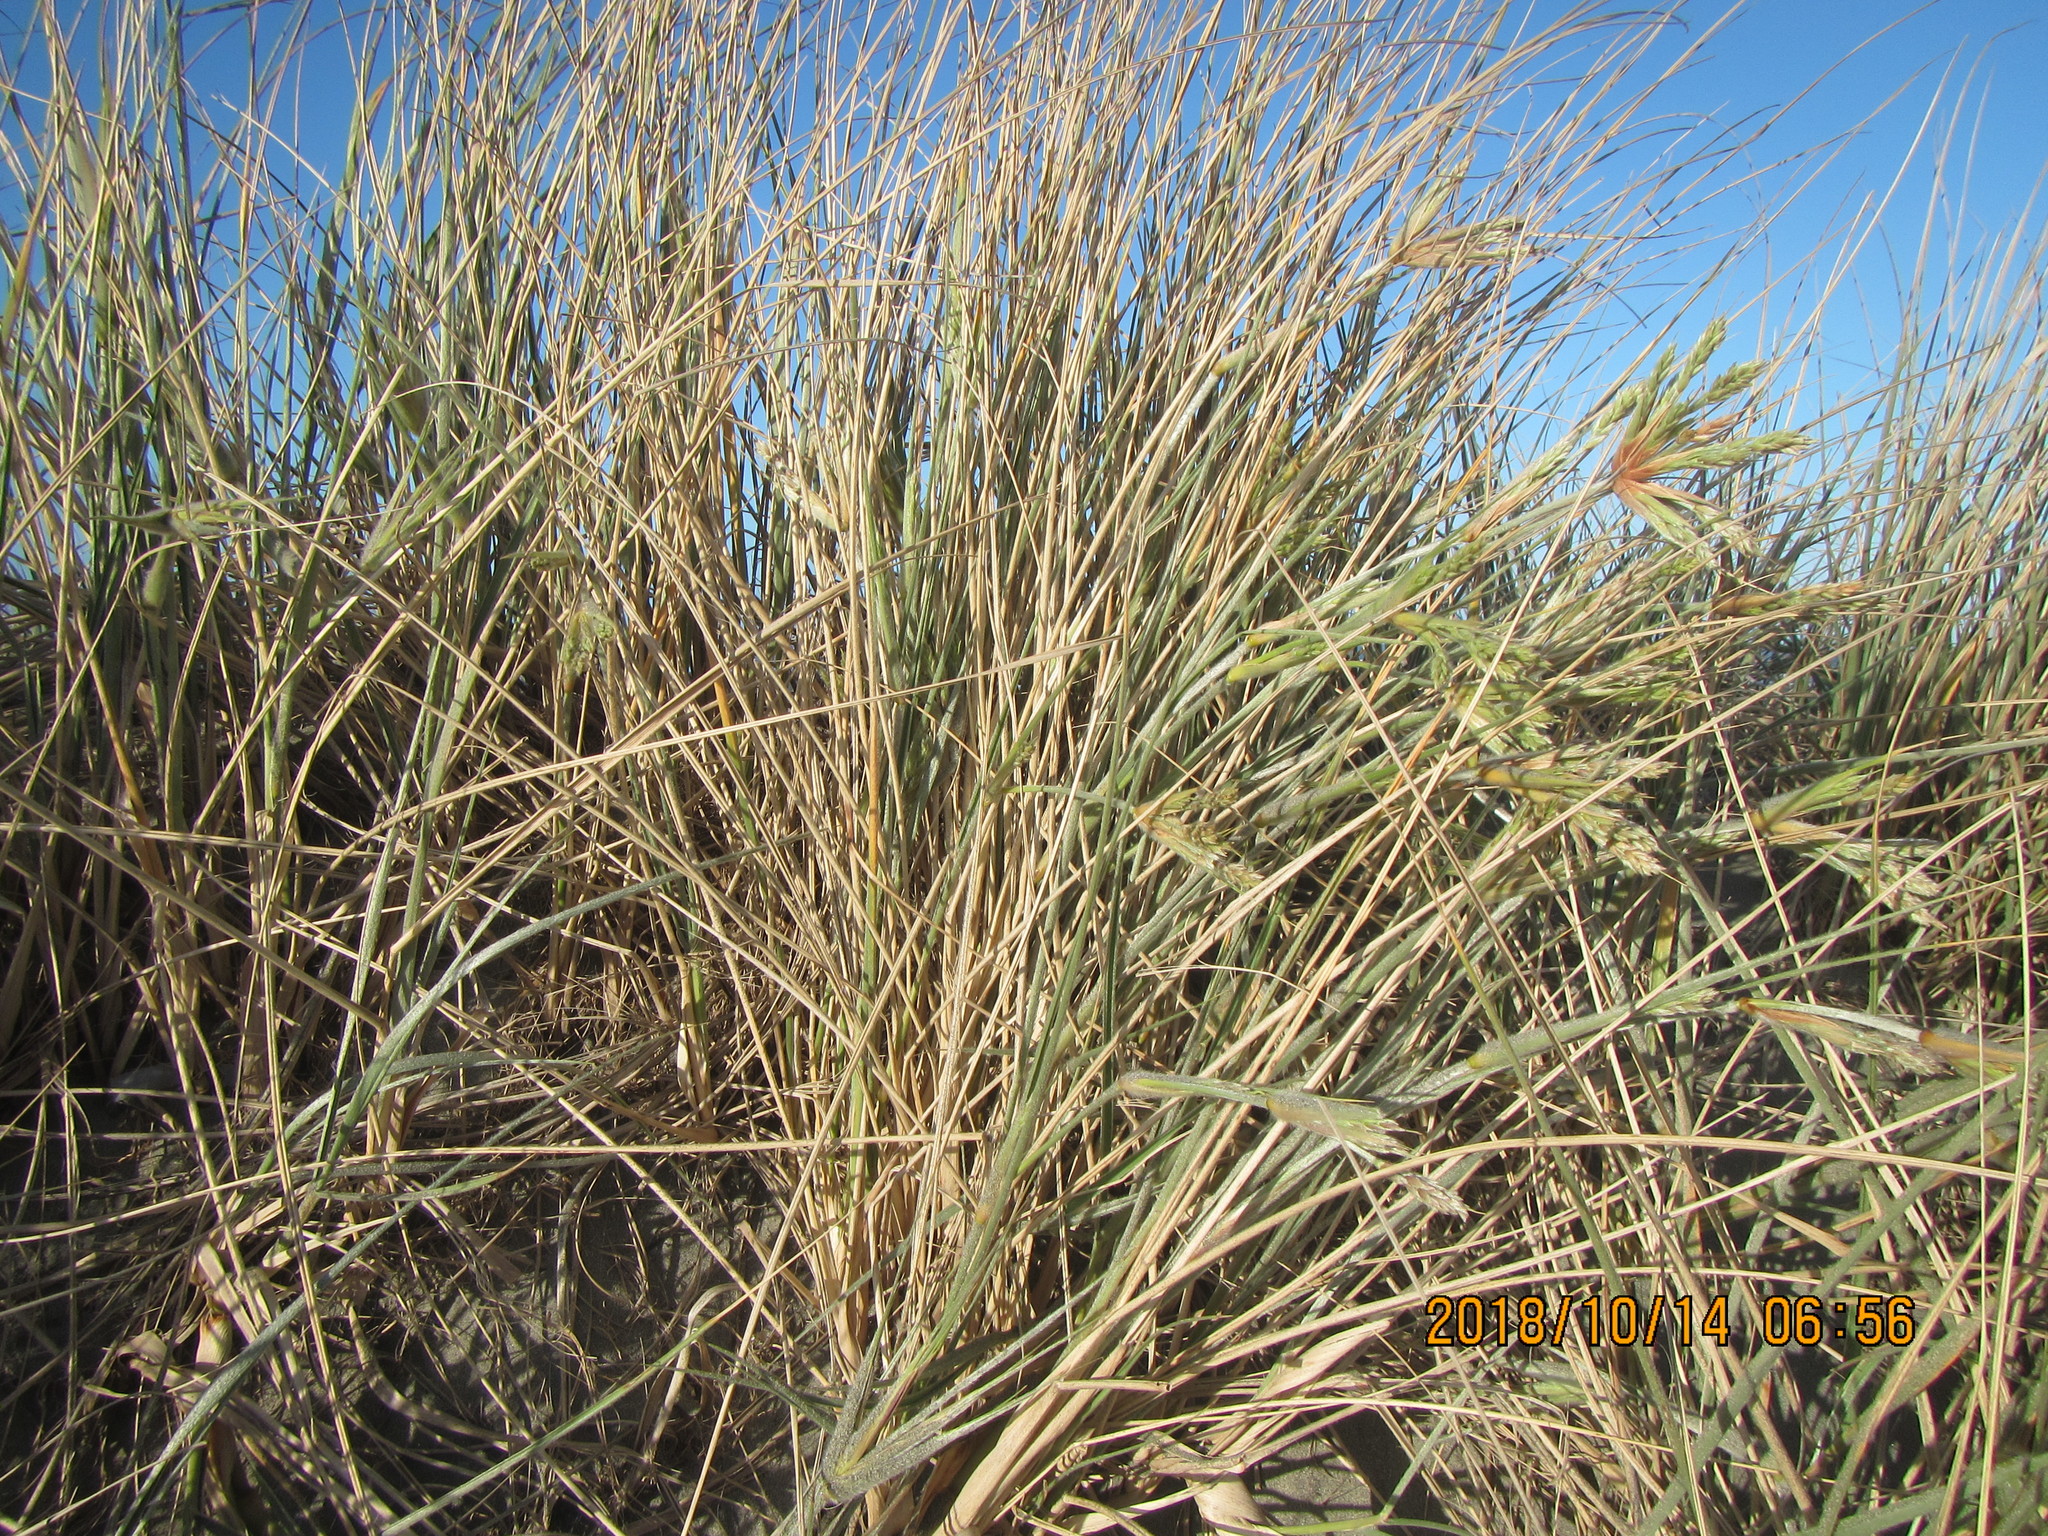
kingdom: Plantae
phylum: Tracheophyta
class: Liliopsida
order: Poales
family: Poaceae
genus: Spinifex
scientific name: Spinifex sericeus
